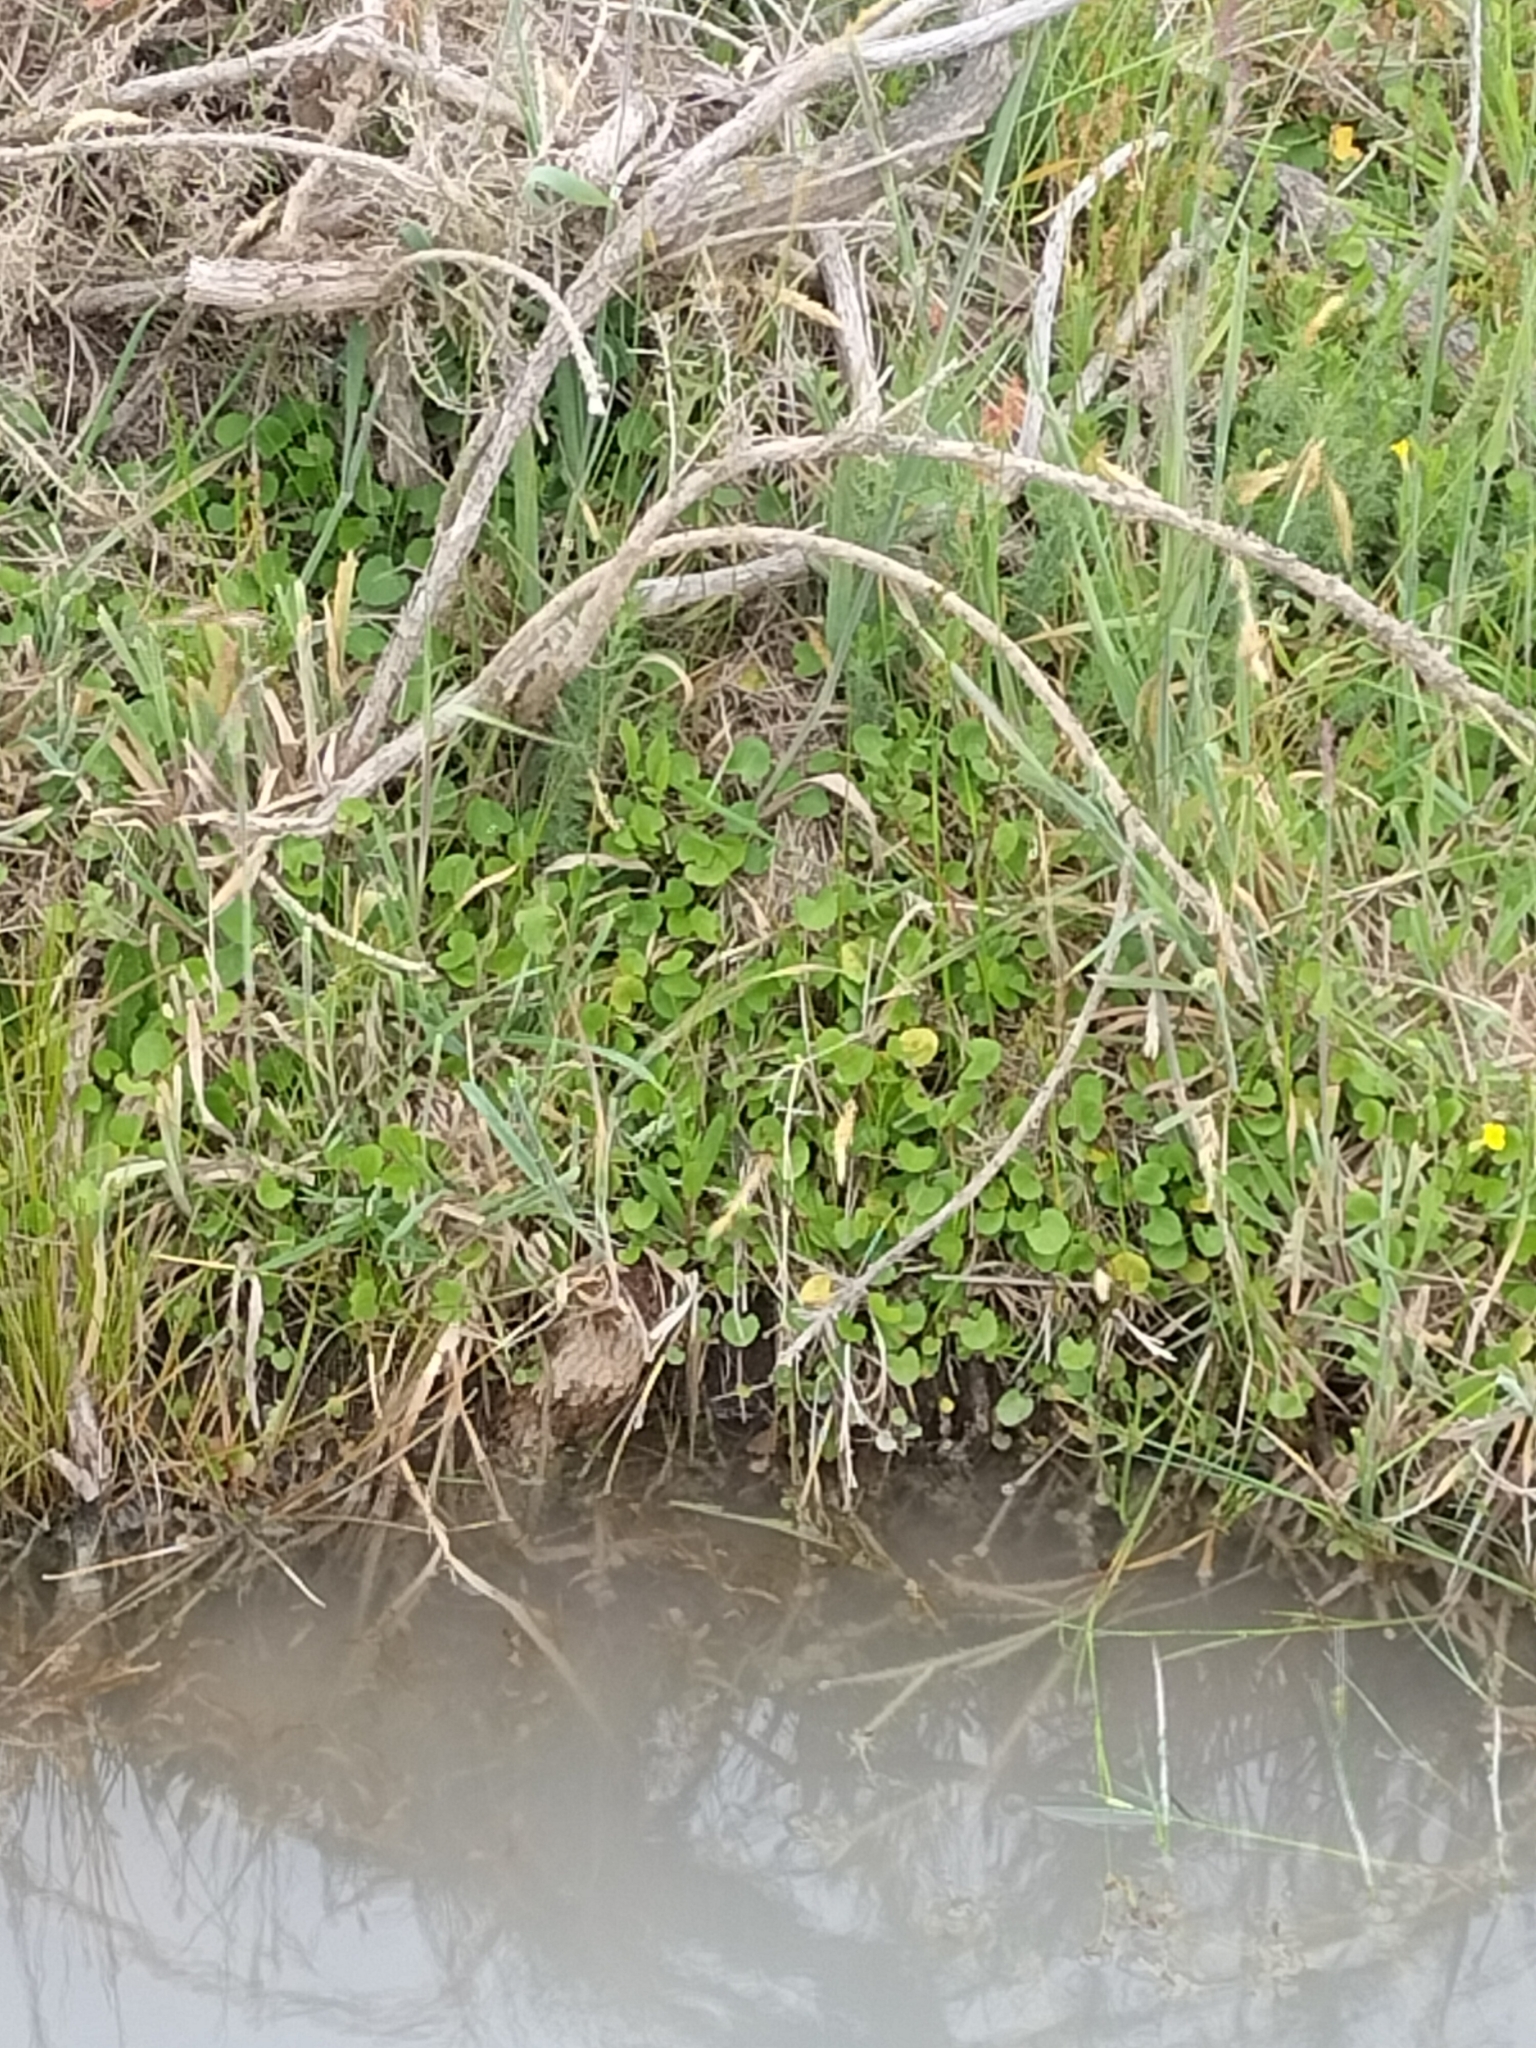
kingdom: Plantae
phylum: Tracheophyta
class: Magnoliopsida
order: Apiales
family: Apiaceae
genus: Centella
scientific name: Centella uniflora
